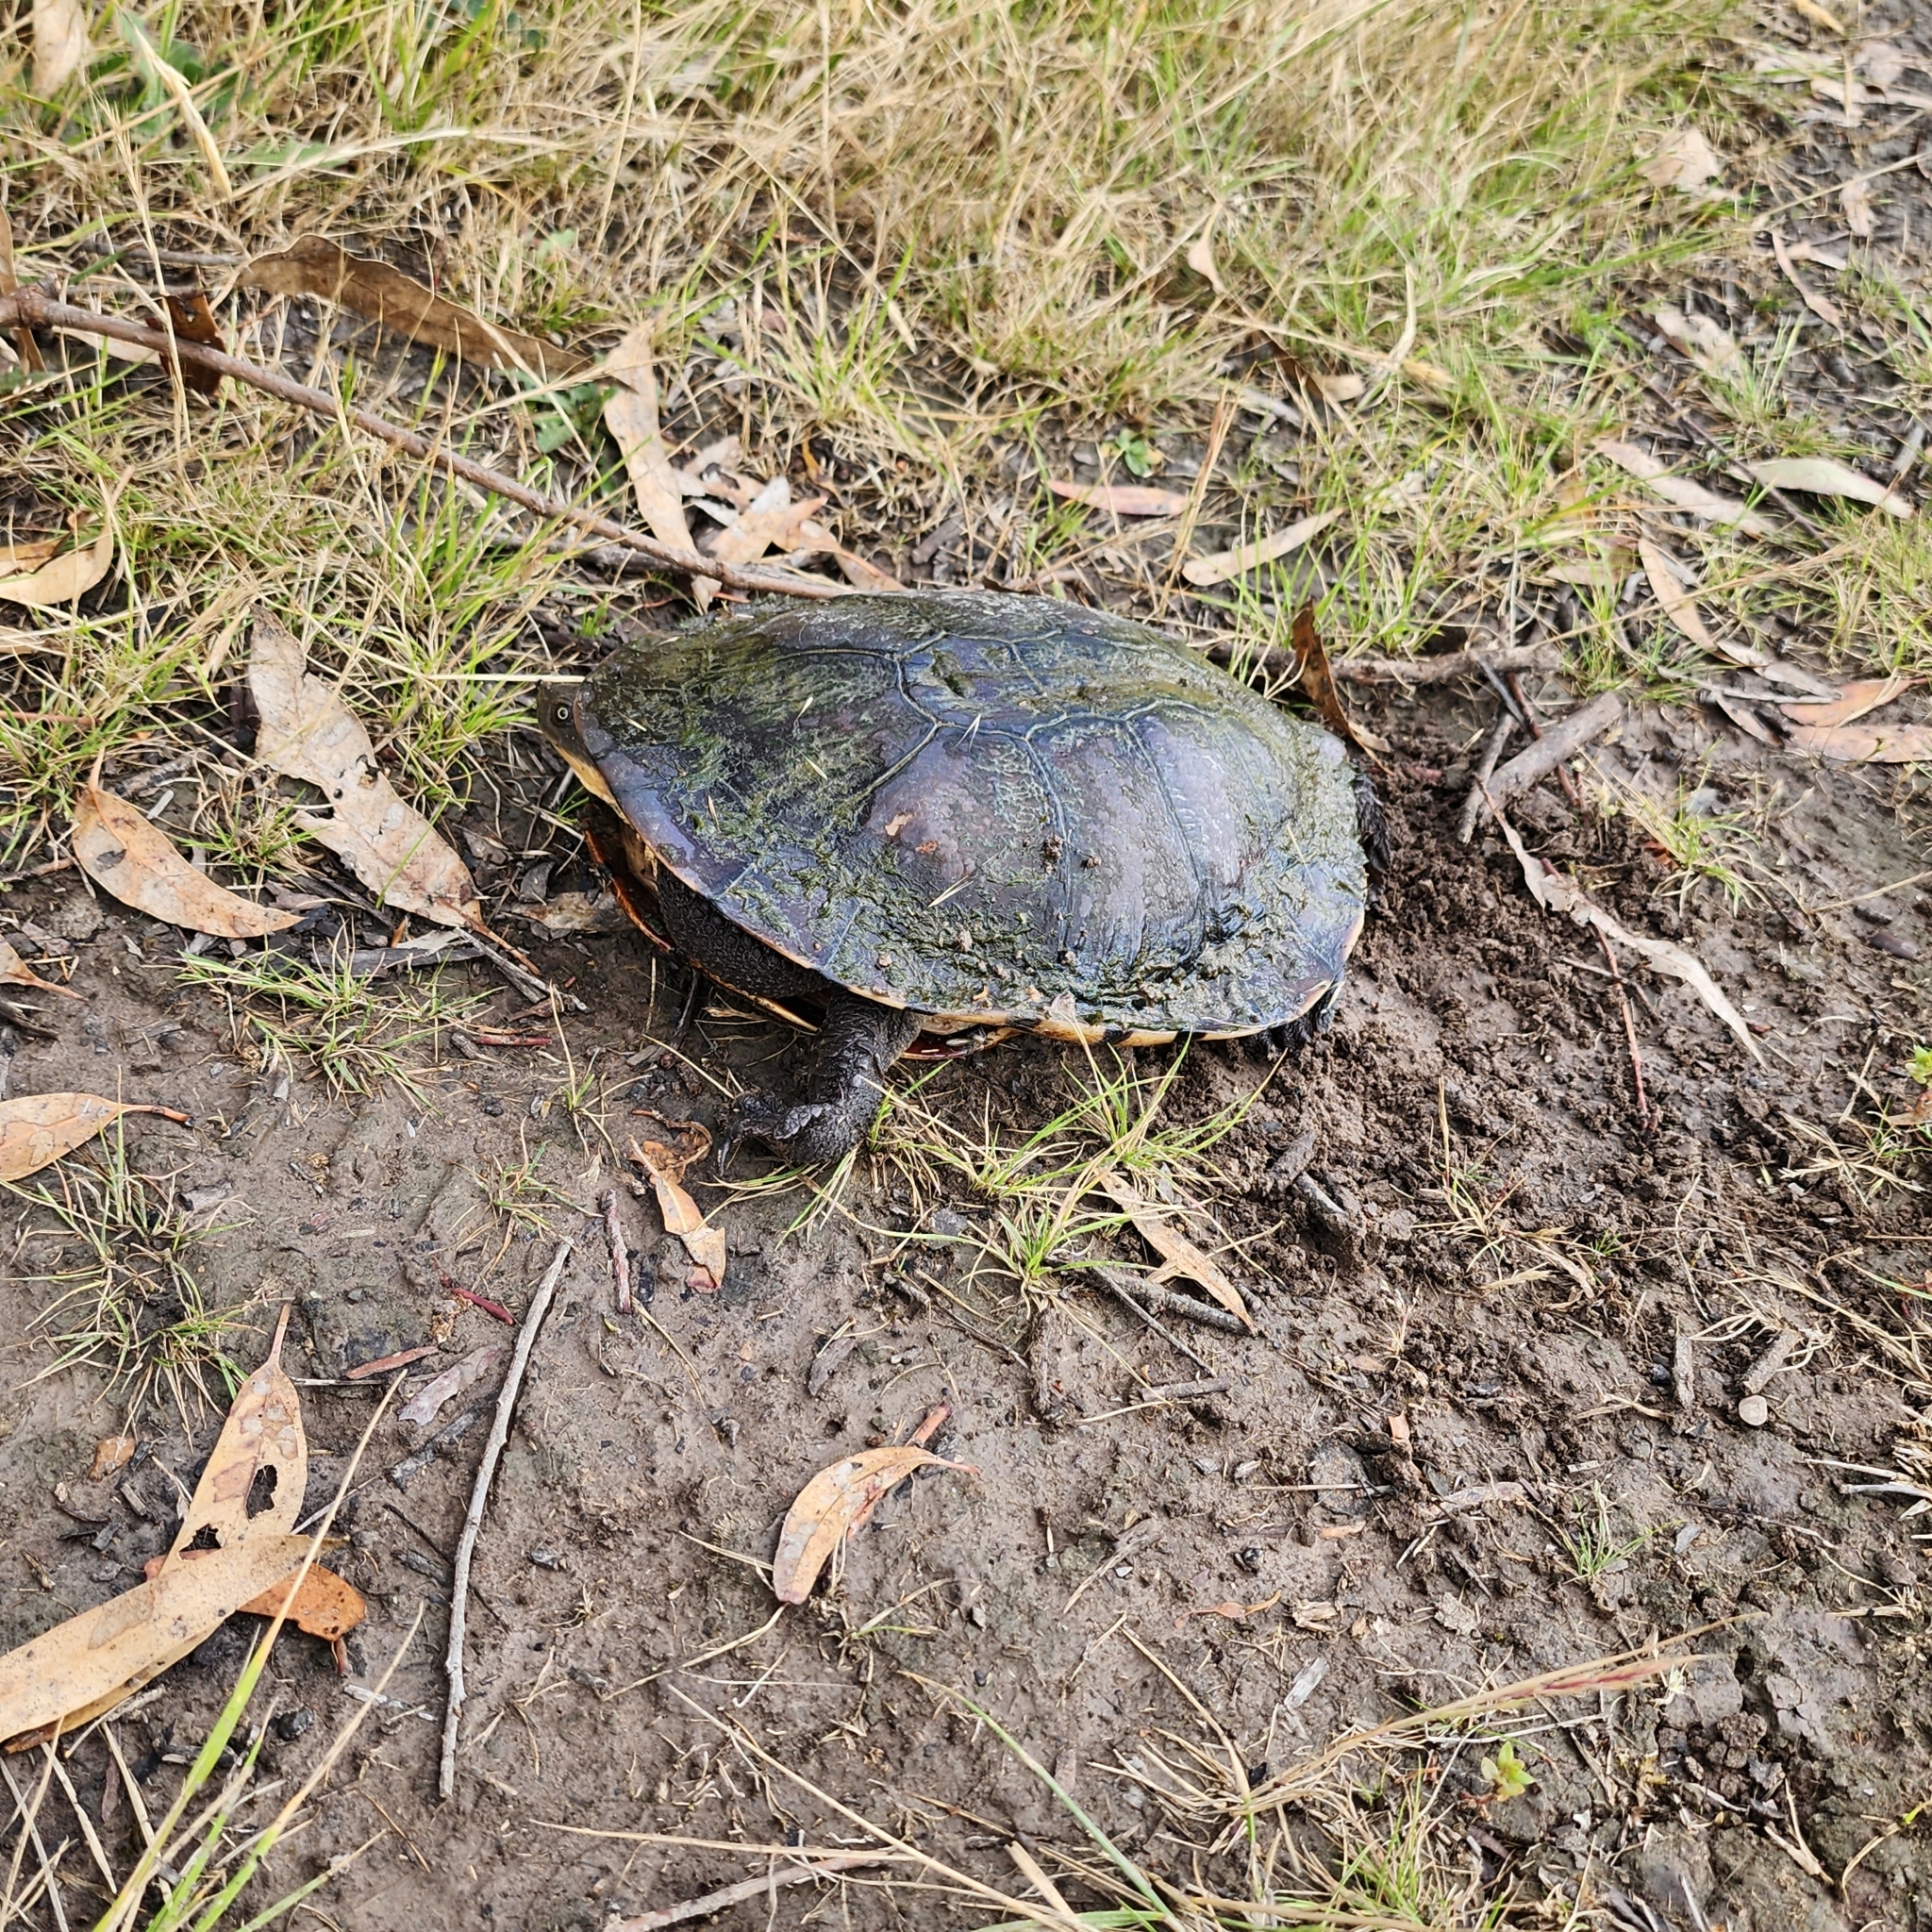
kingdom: Animalia
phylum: Chordata
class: Testudines
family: Chelidae
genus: Chelodina
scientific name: Chelodina longicollis
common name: Eastern snake-necked turtle
